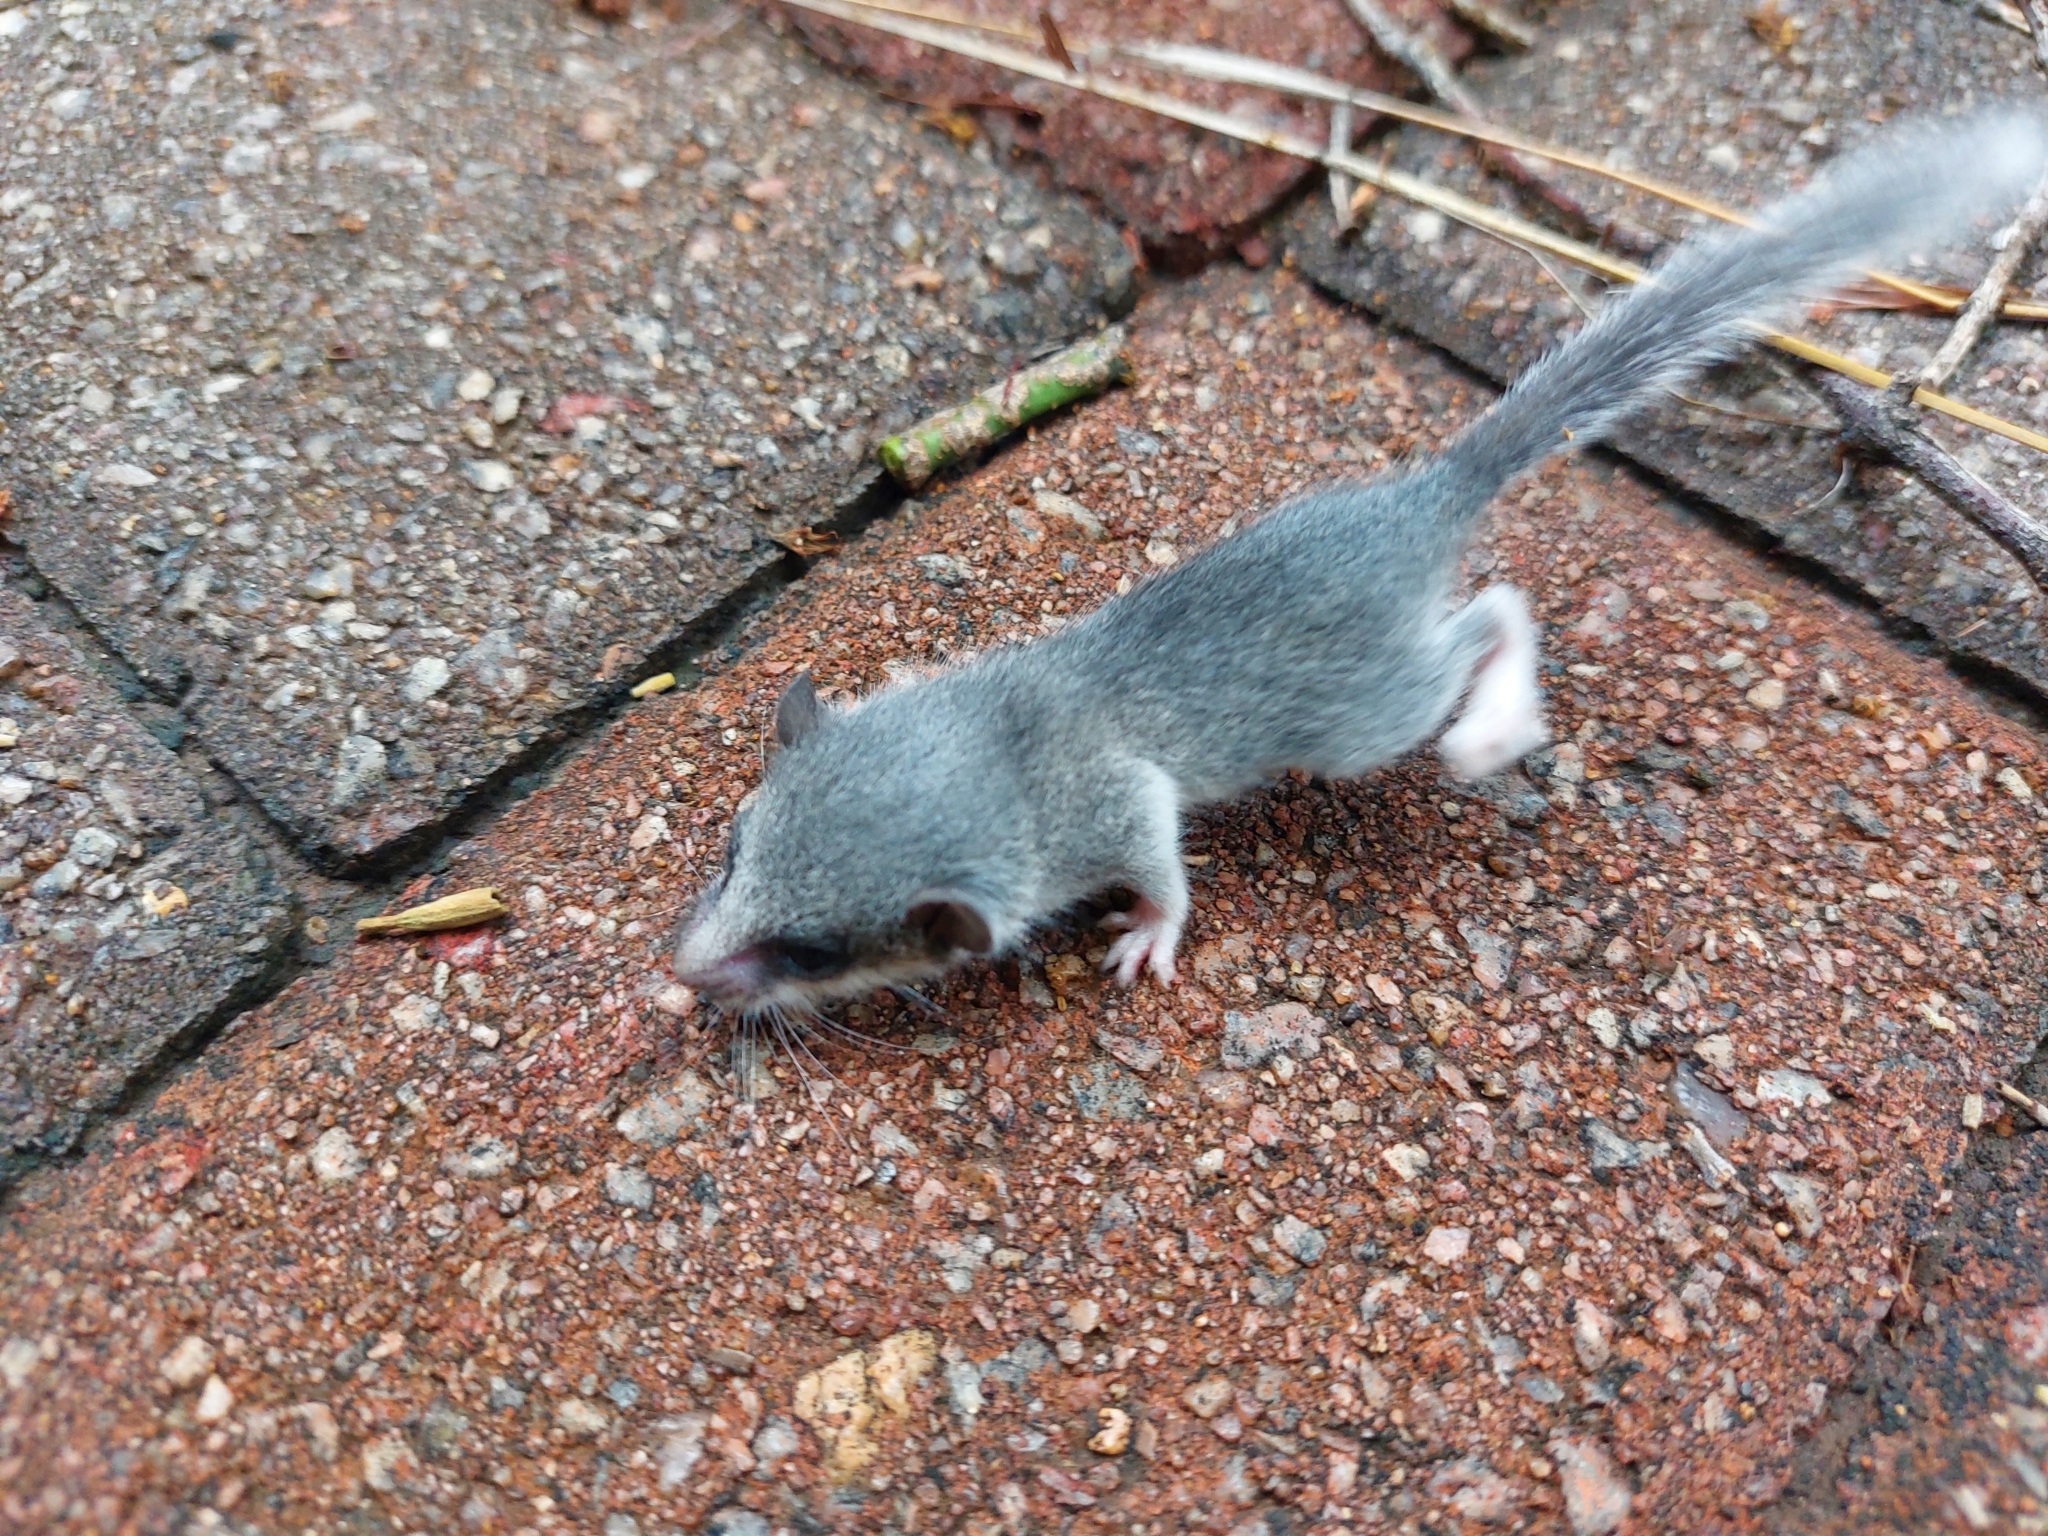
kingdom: Animalia
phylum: Chordata
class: Mammalia
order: Rodentia
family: Gliridae
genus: Graphiurus
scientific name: Graphiurus murinus
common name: Forest african dormouse
